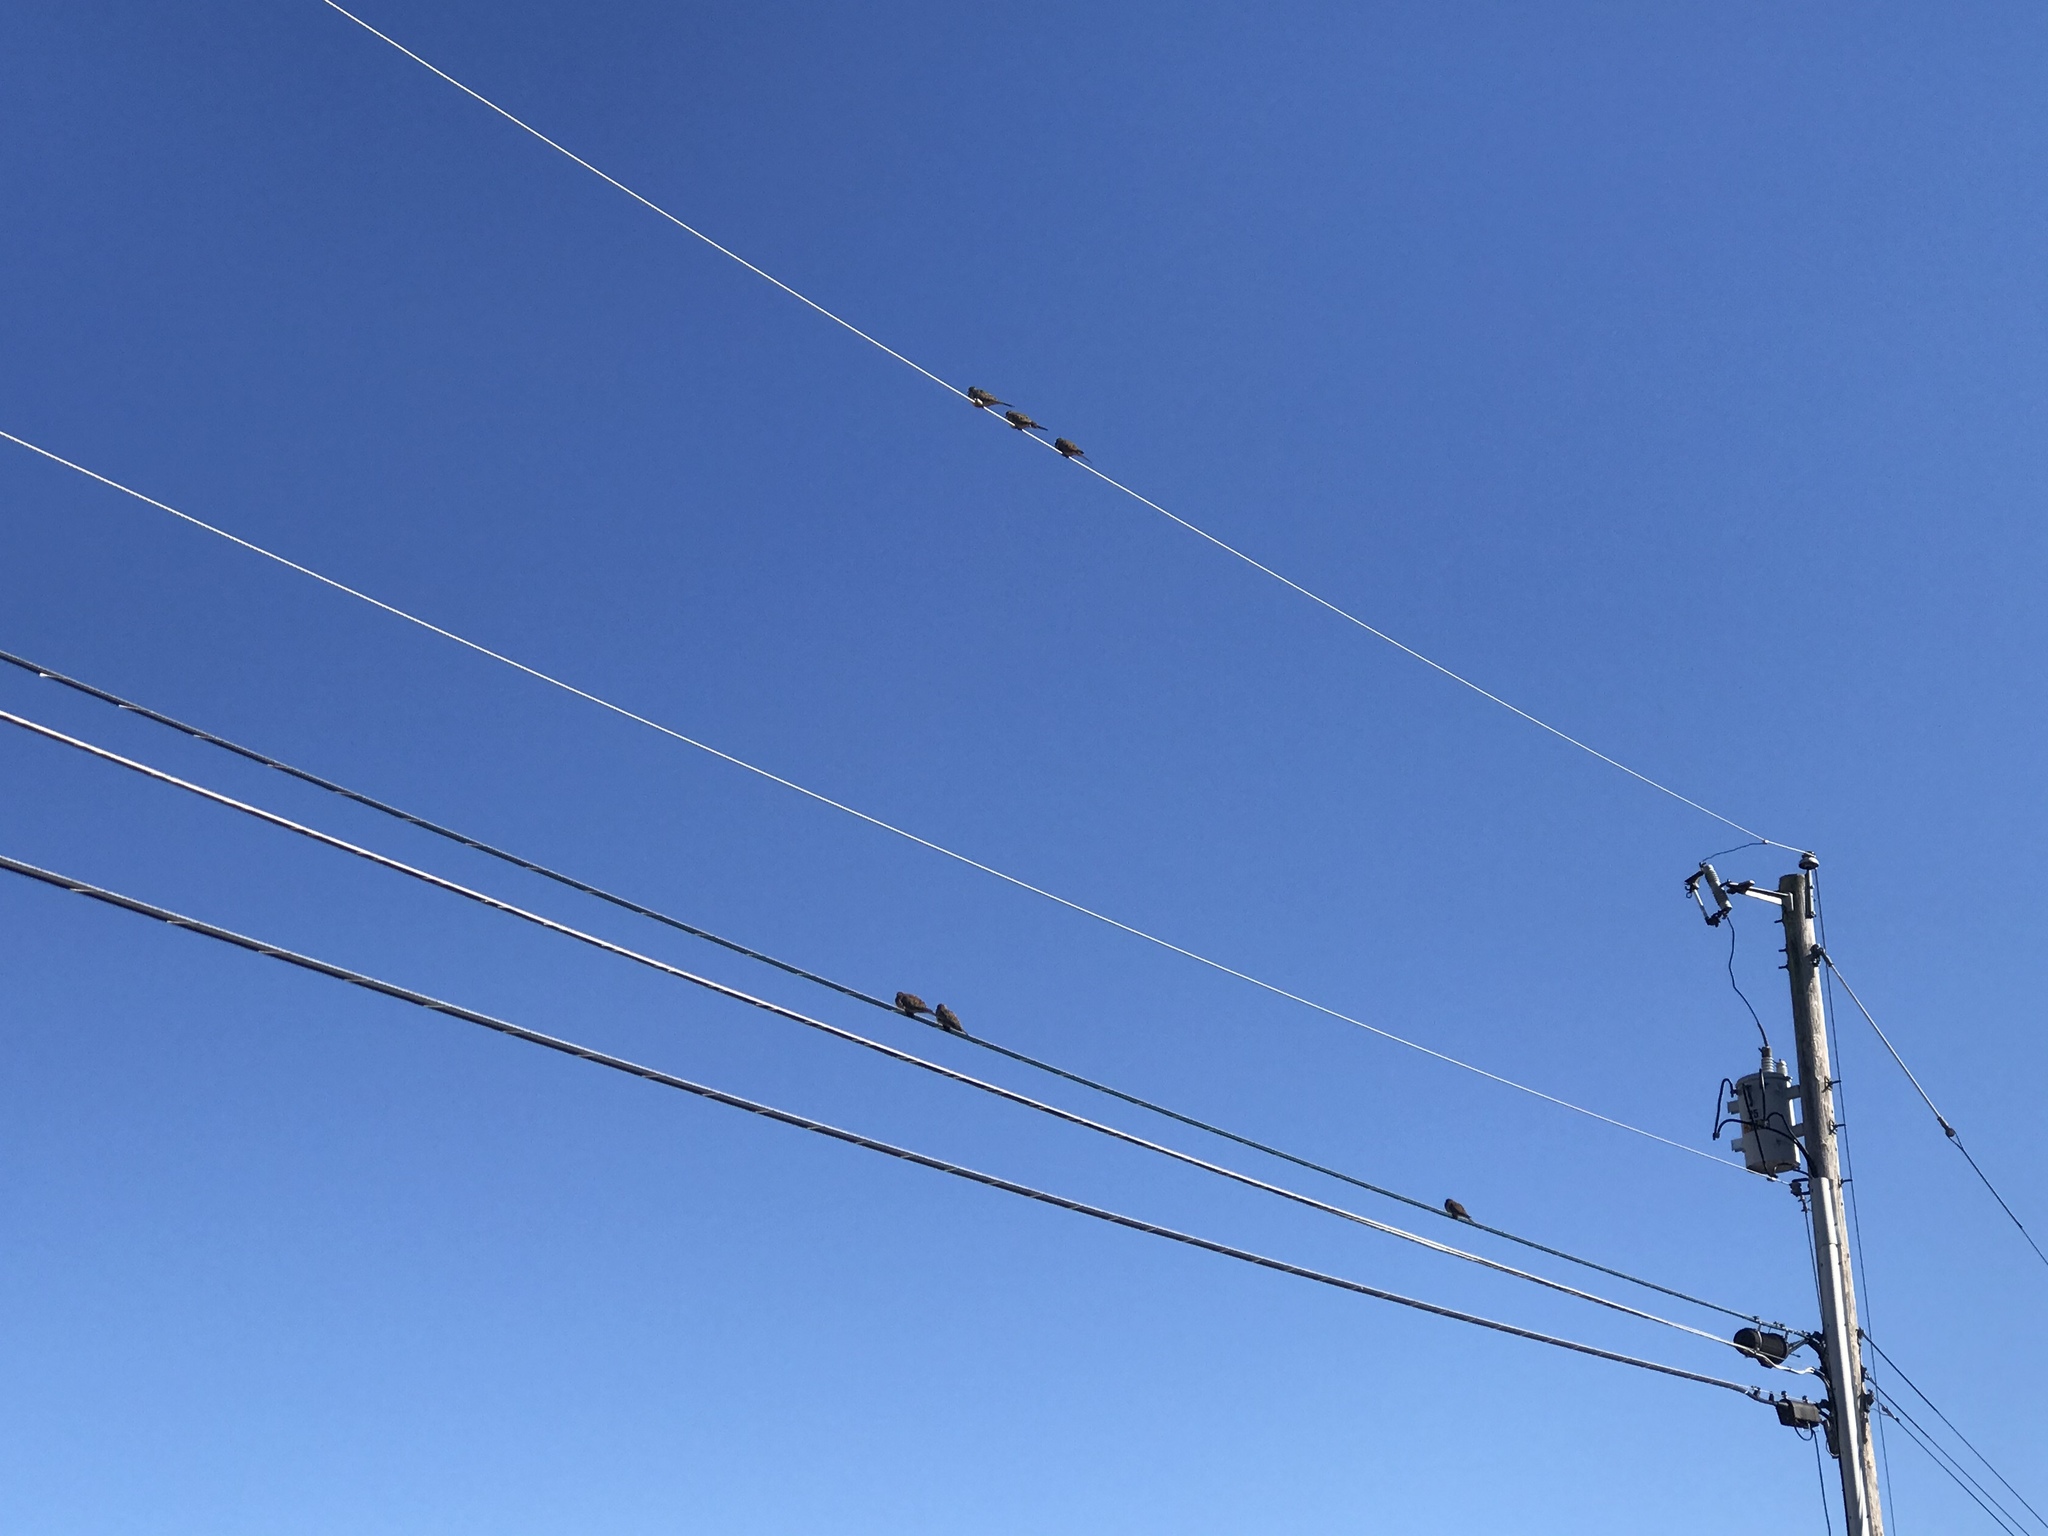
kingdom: Animalia
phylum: Chordata
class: Aves
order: Columbiformes
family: Columbidae
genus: Zenaida
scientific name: Zenaida macroura
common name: Mourning dove
